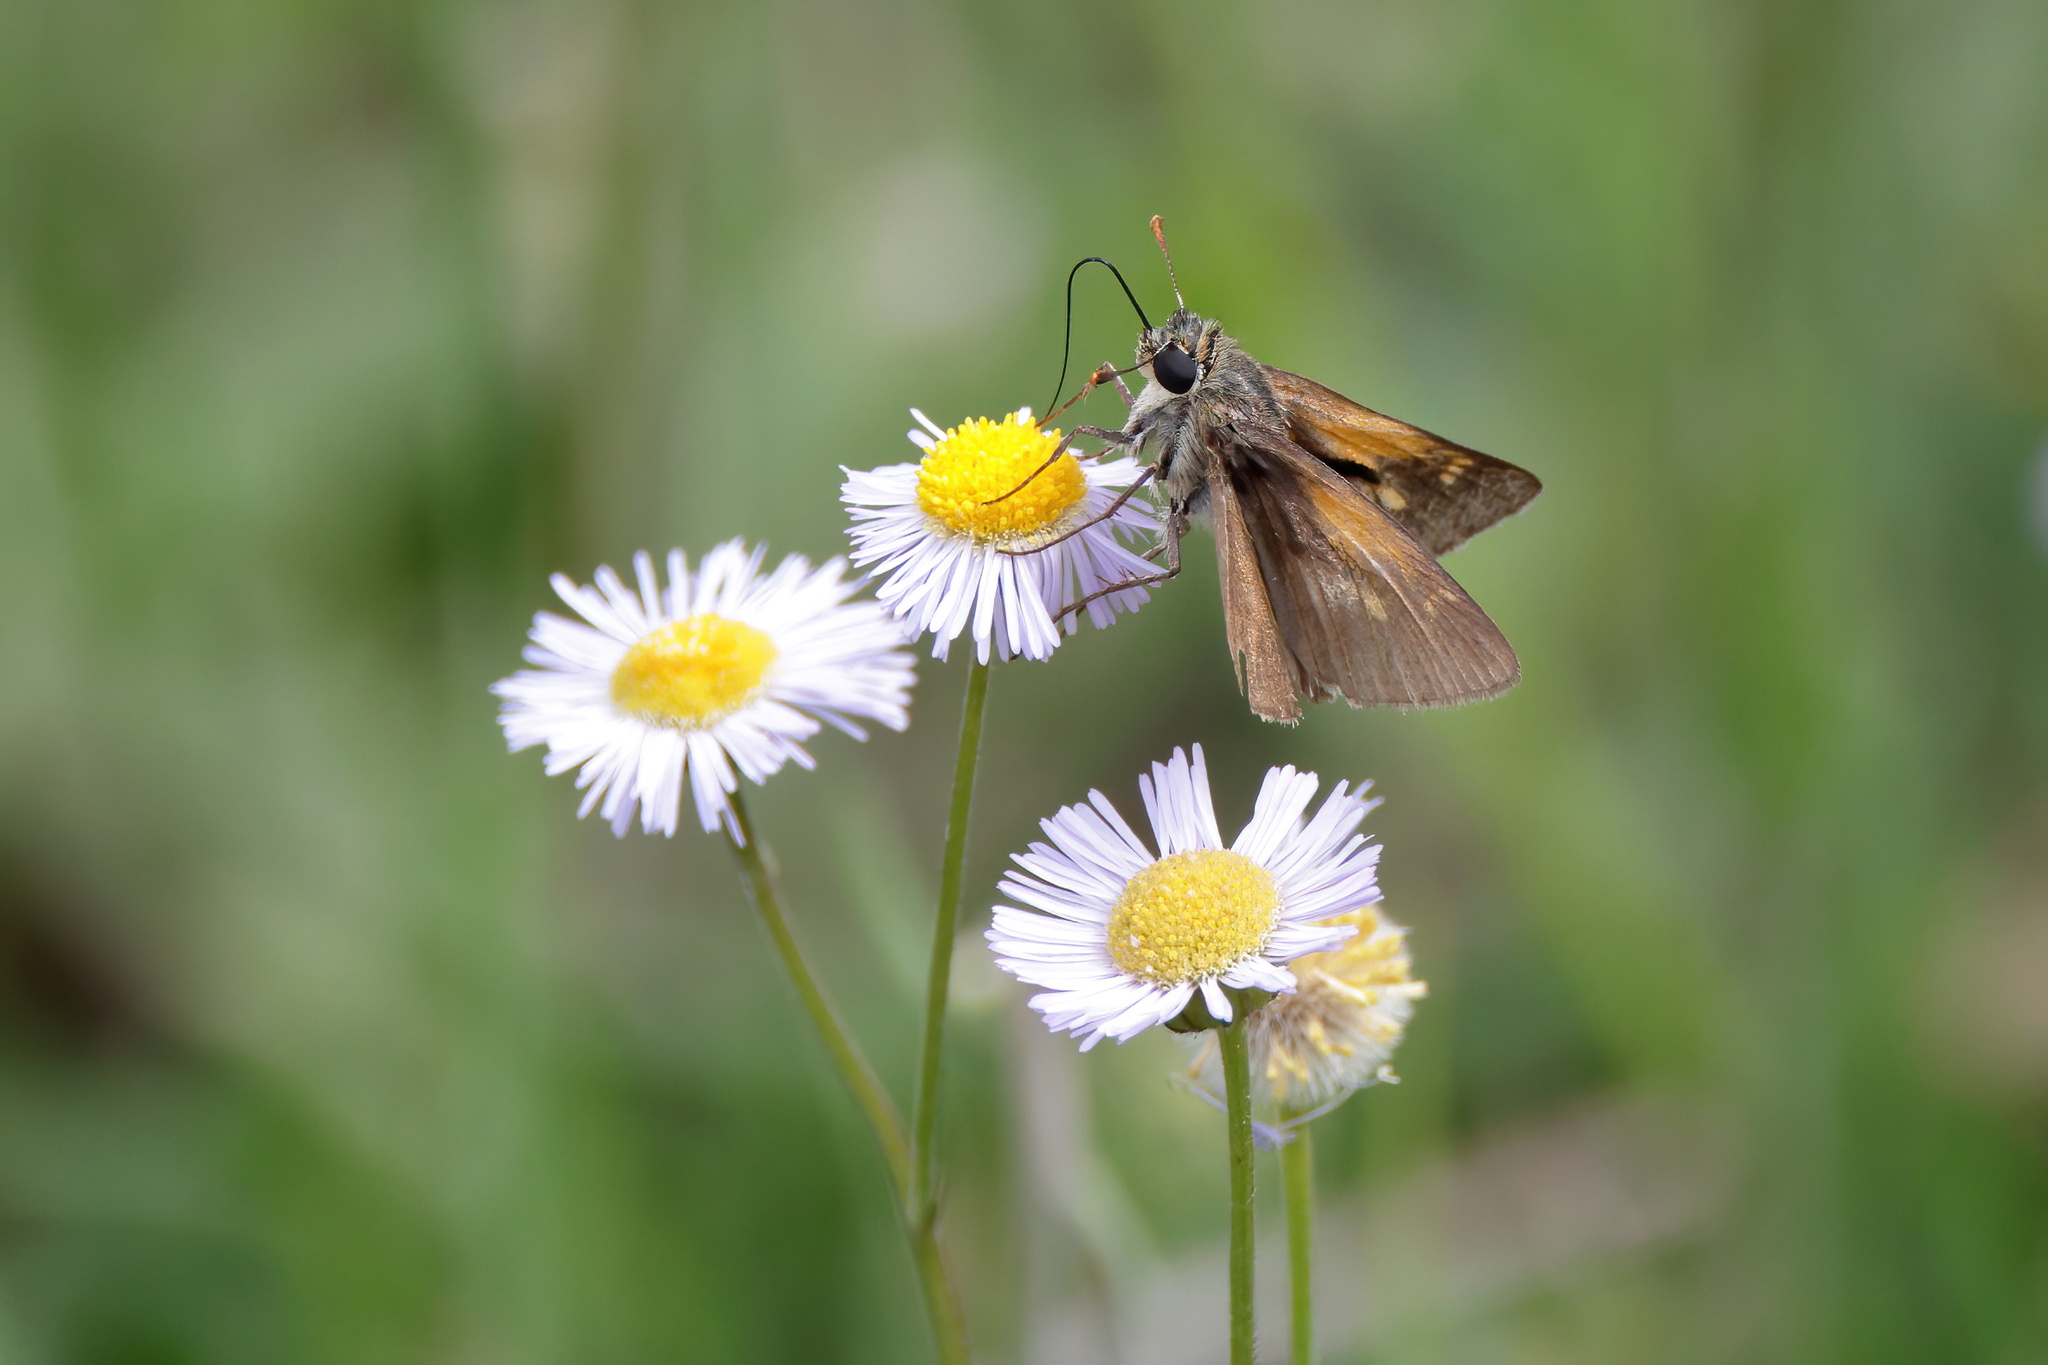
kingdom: Animalia
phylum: Arthropoda
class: Insecta
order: Lepidoptera
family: Hesperiidae
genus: Polites
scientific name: Polites themistocles
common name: Tawny-edged skipper
